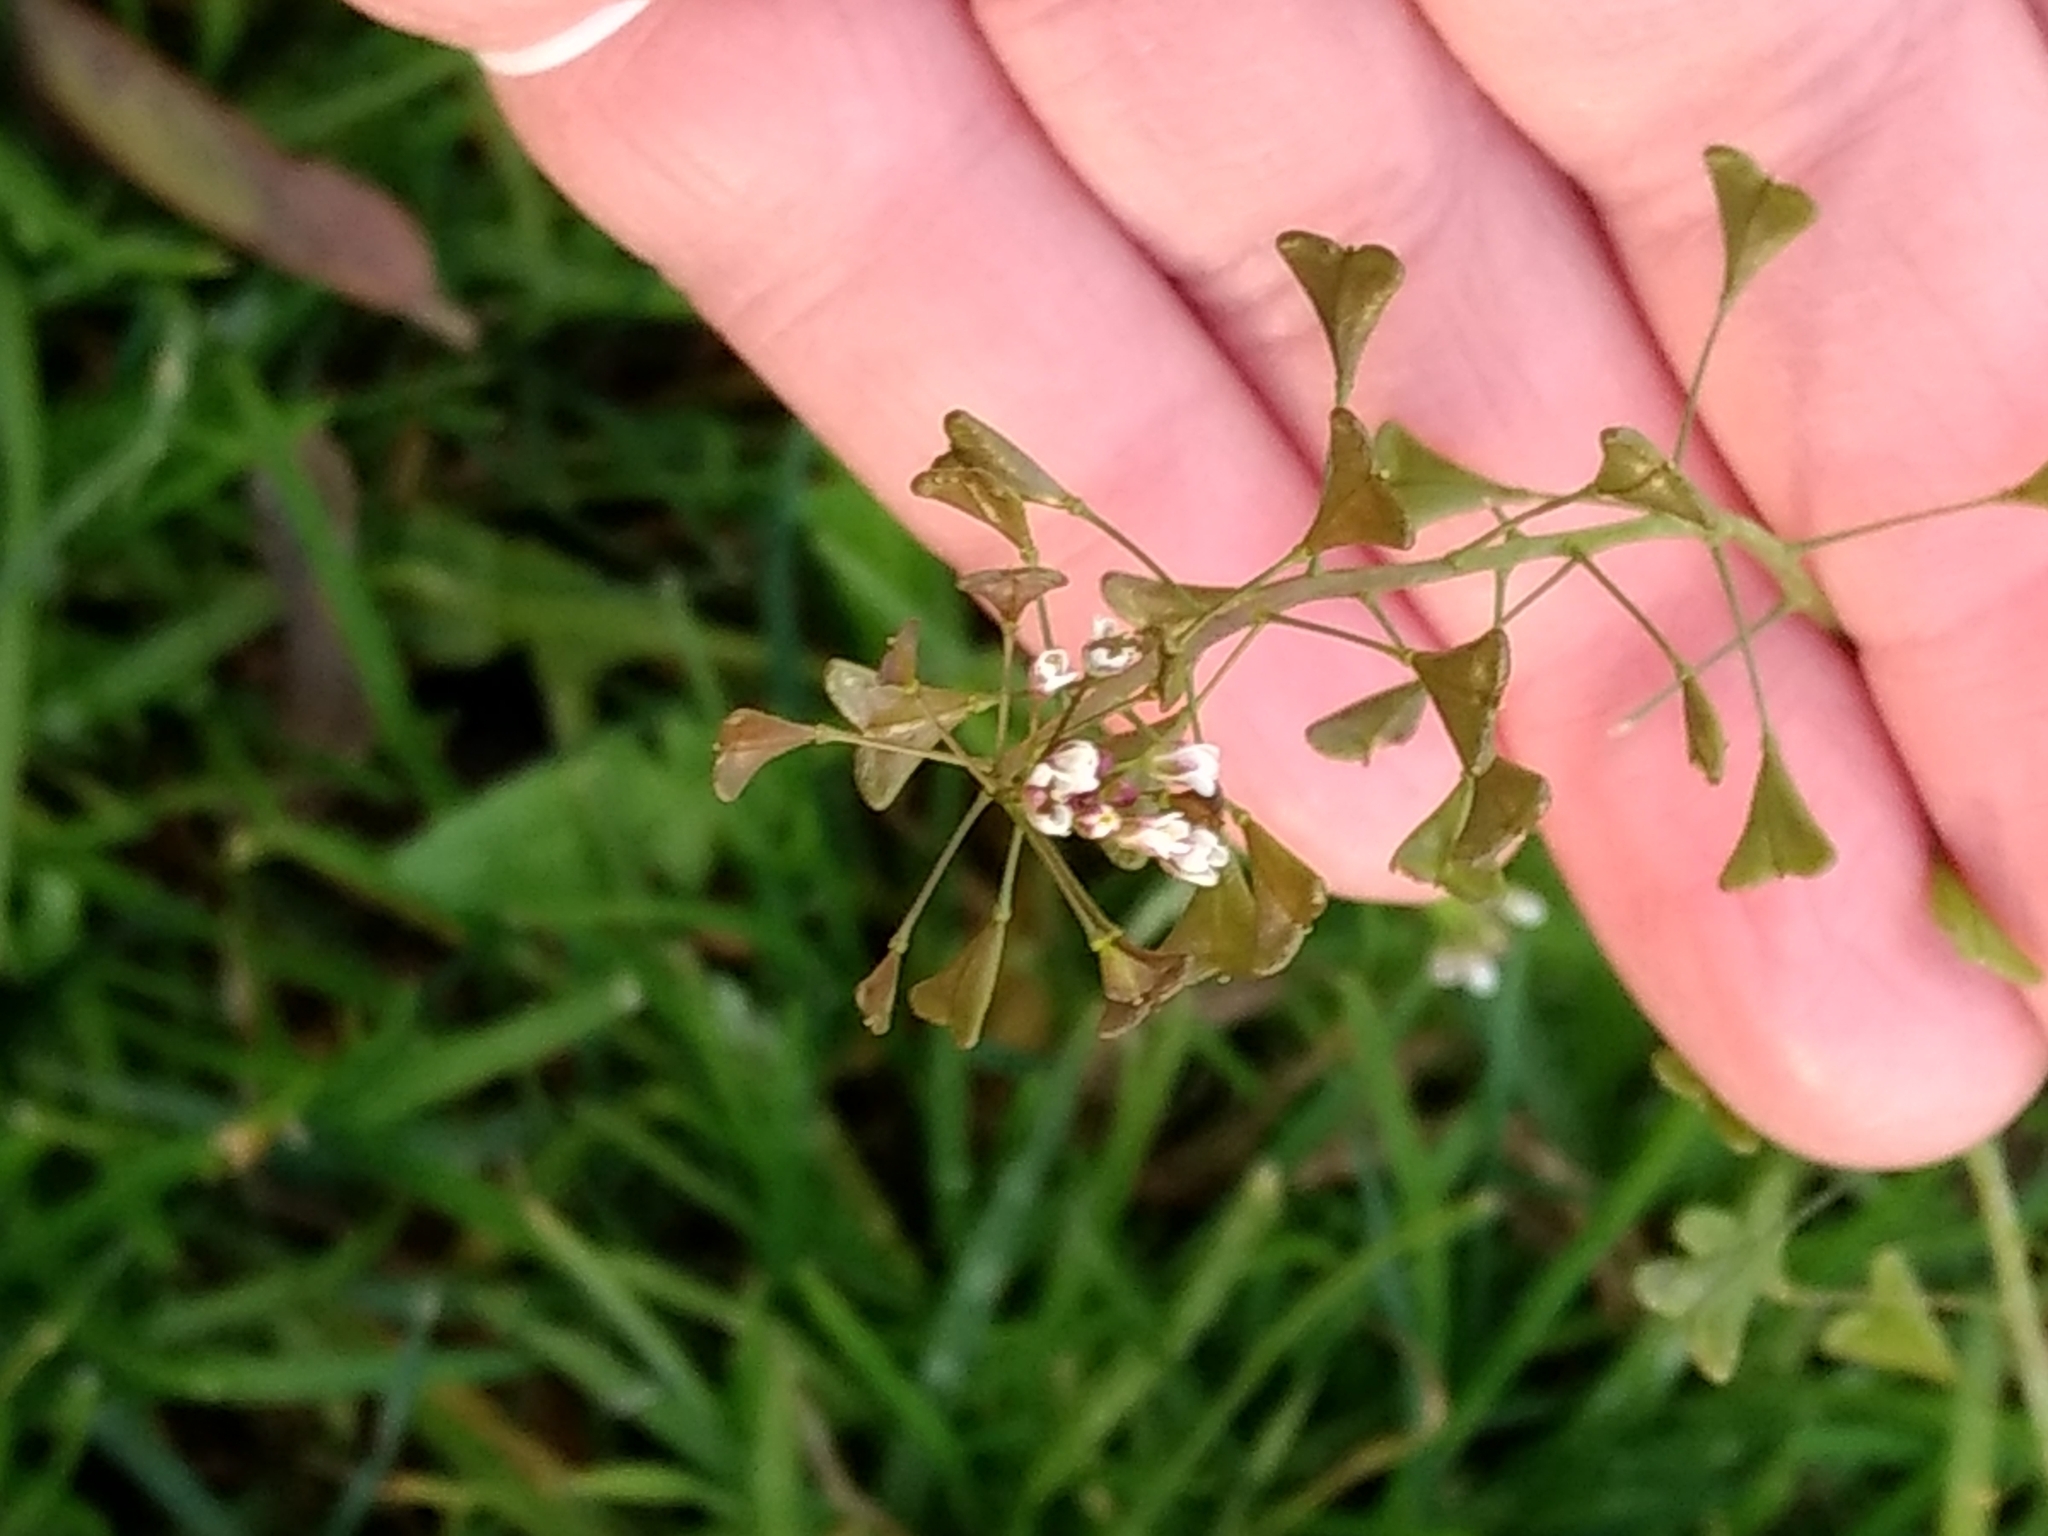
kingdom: Plantae
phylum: Tracheophyta
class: Magnoliopsida
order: Brassicales
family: Brassicaceae
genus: Capsella
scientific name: Capsella bursa-pastoris
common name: Shepherd's purse
